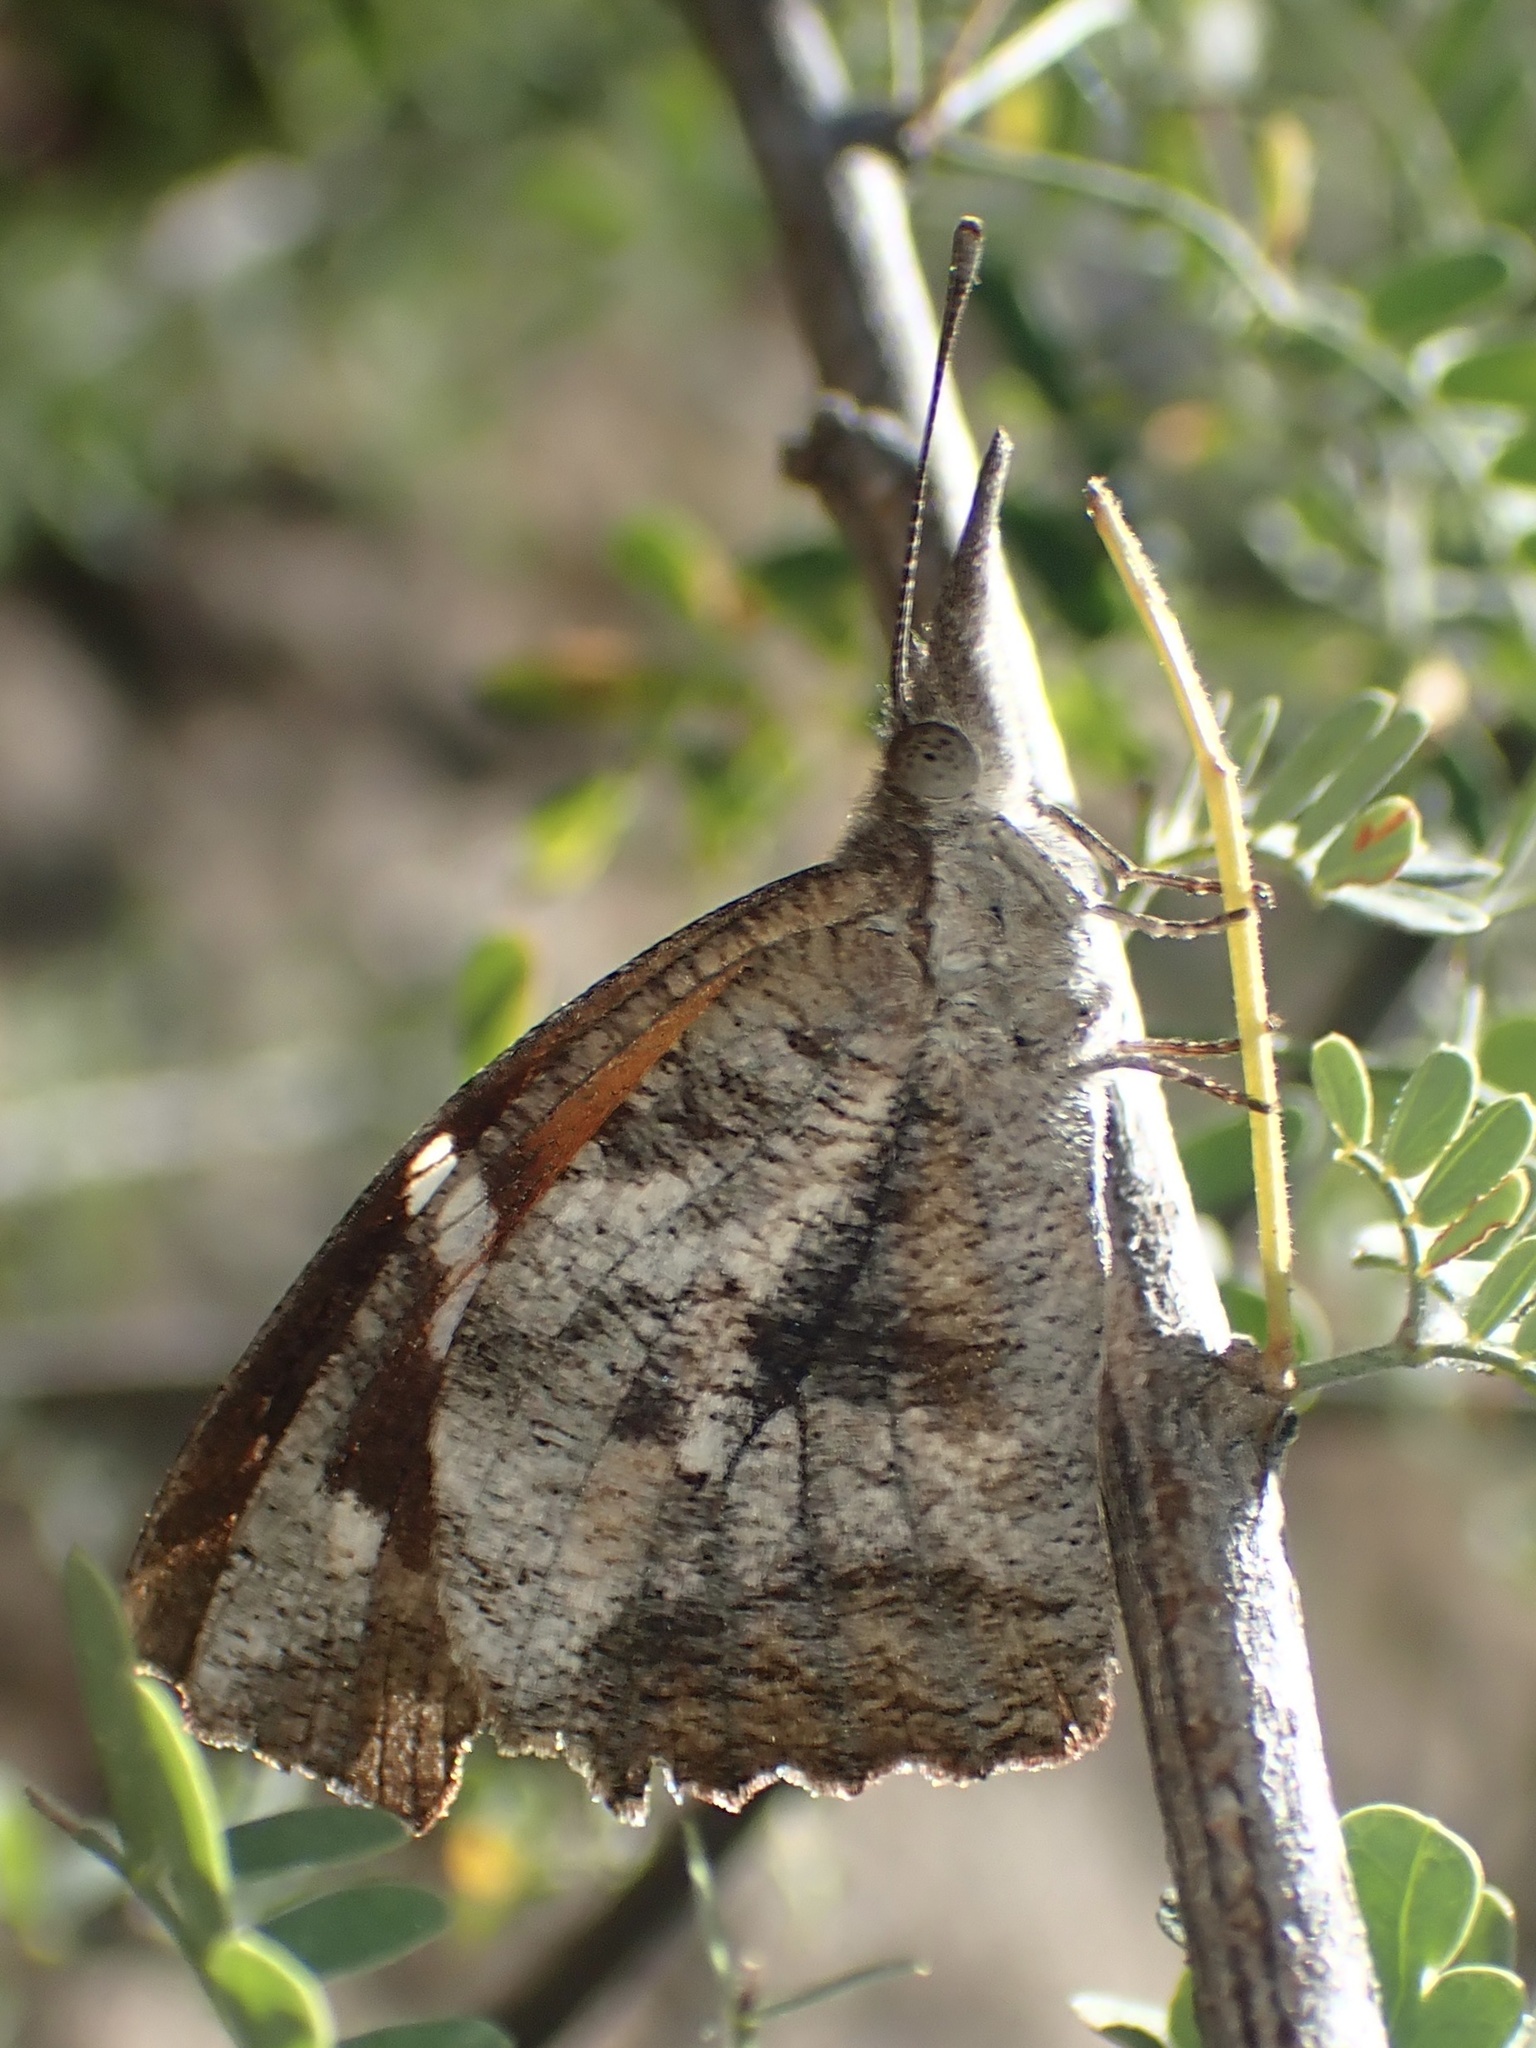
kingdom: Animalia
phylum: Arthropoda
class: Insecta
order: Lepidoptera
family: Nymphalidae
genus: Libytheana
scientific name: Libytheana carinenta
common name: American snout
